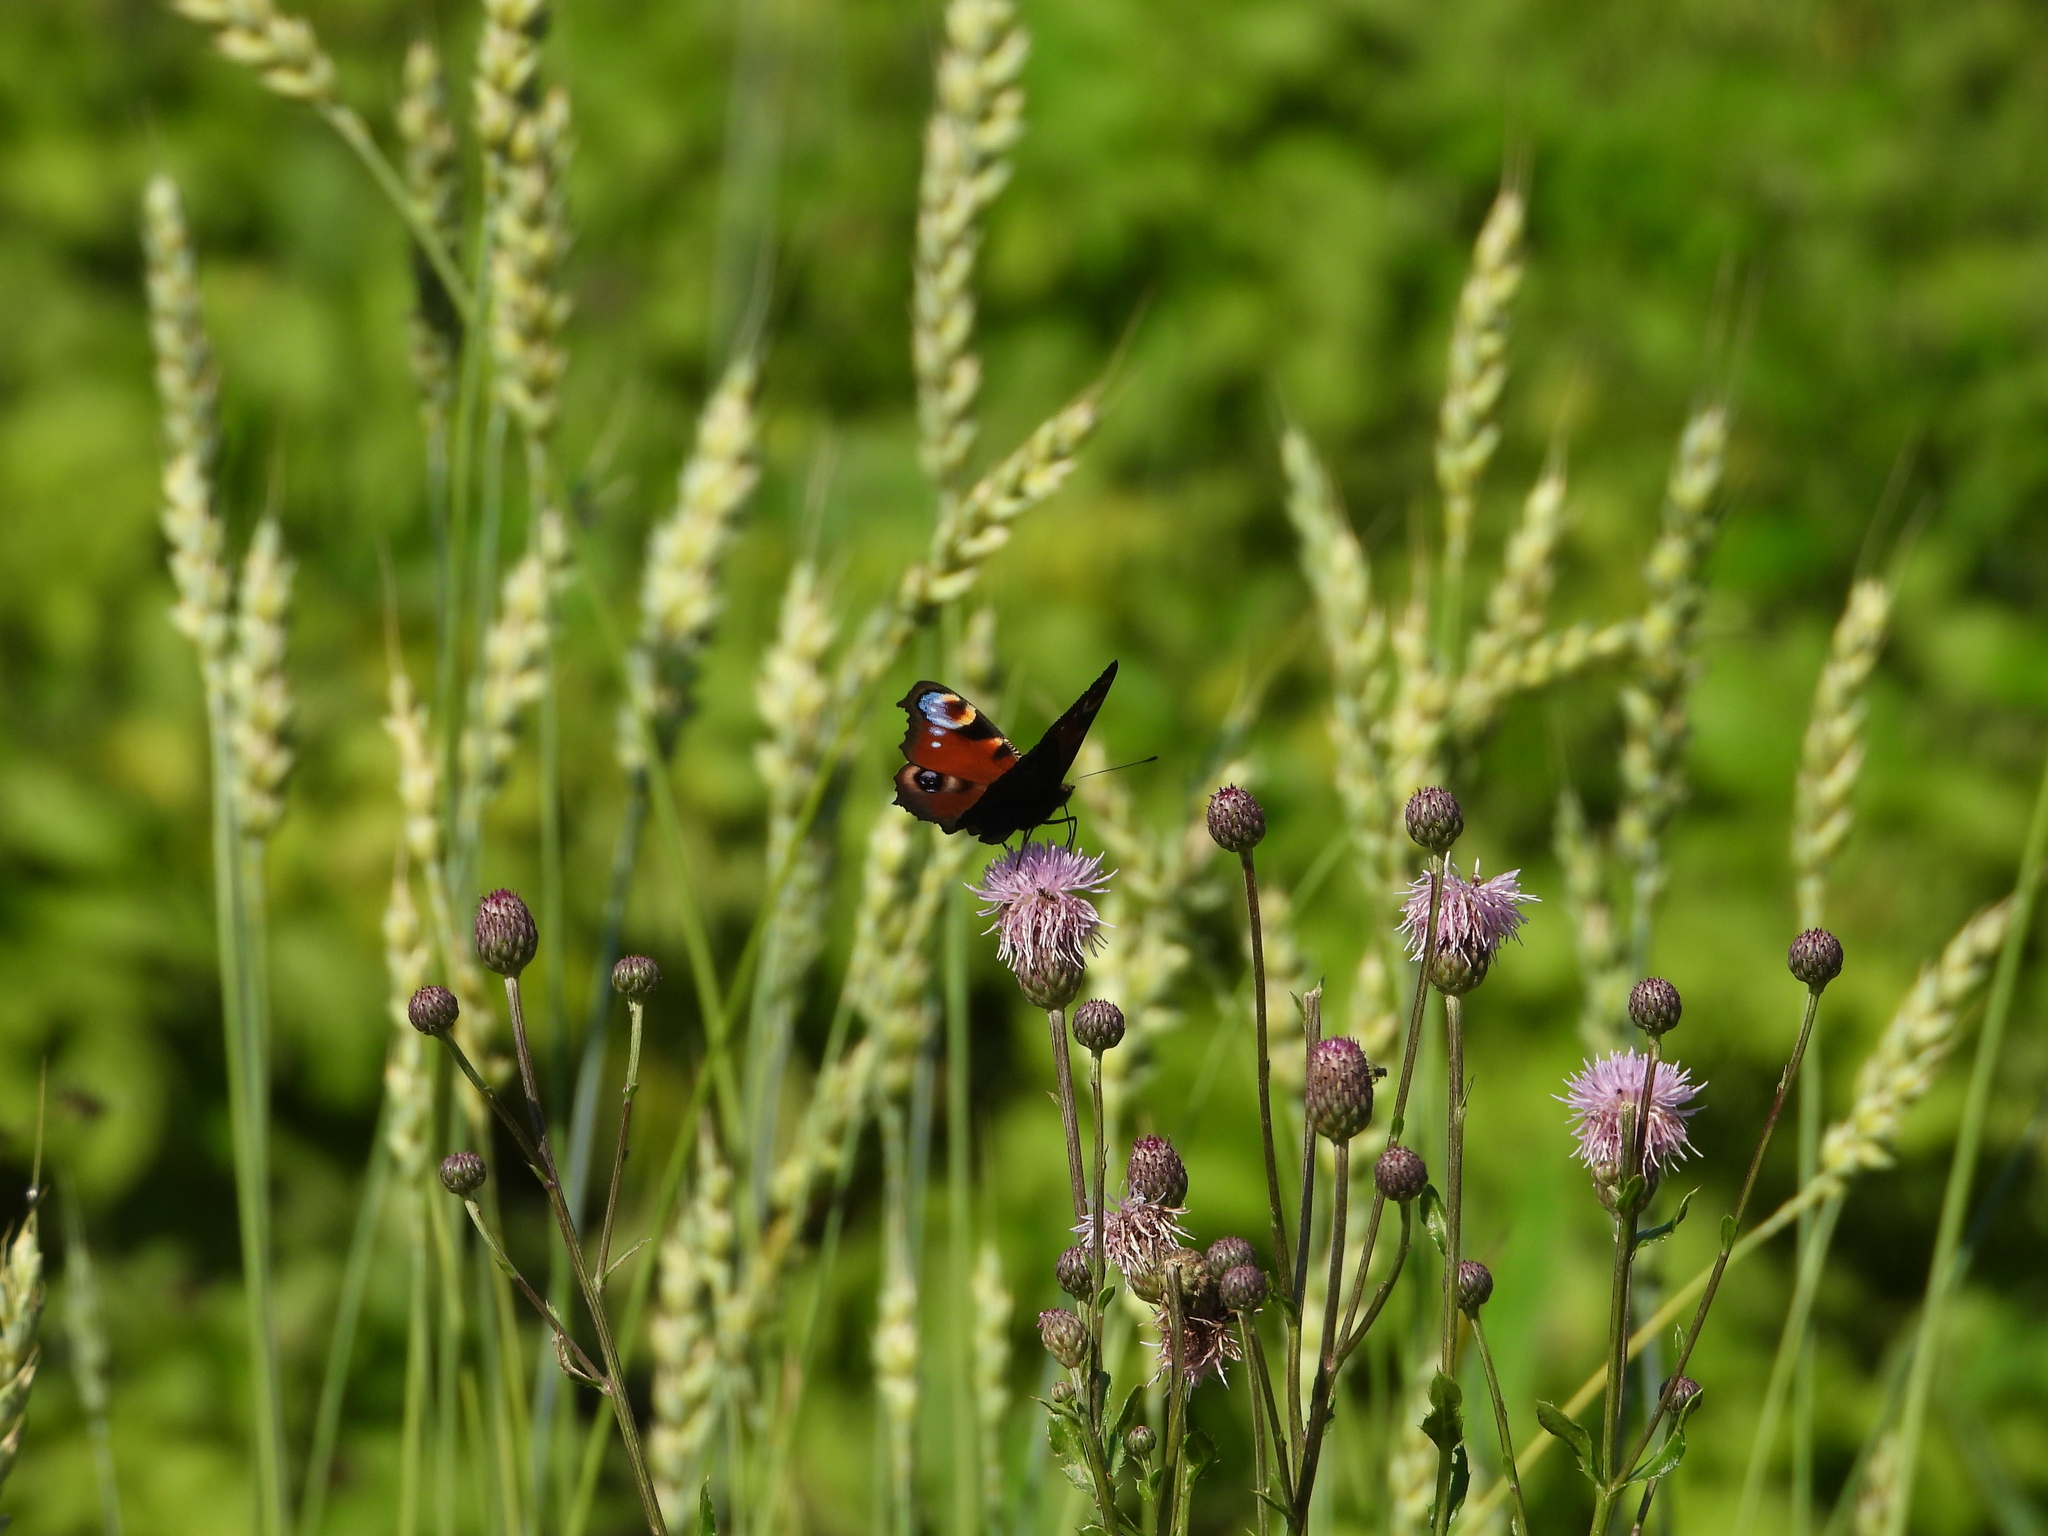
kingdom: Animalia
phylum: Arthropoda
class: Insecta
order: Lepidoptera
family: Nymphalidae
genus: Aglais
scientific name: Aglais io
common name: Peacock
